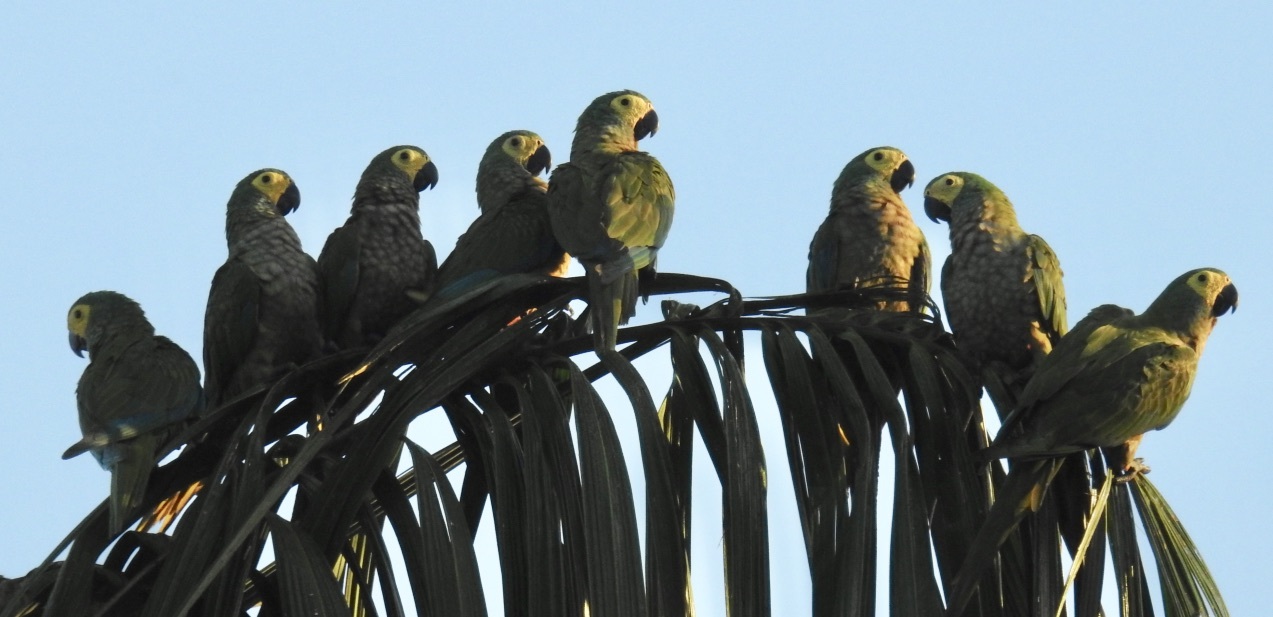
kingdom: Animalia
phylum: Chordata
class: Aves
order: Psittaciformes
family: Psittacidae
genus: Orthopsittaca
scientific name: Orthopsittaca manilata
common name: Red-bellied macaw
